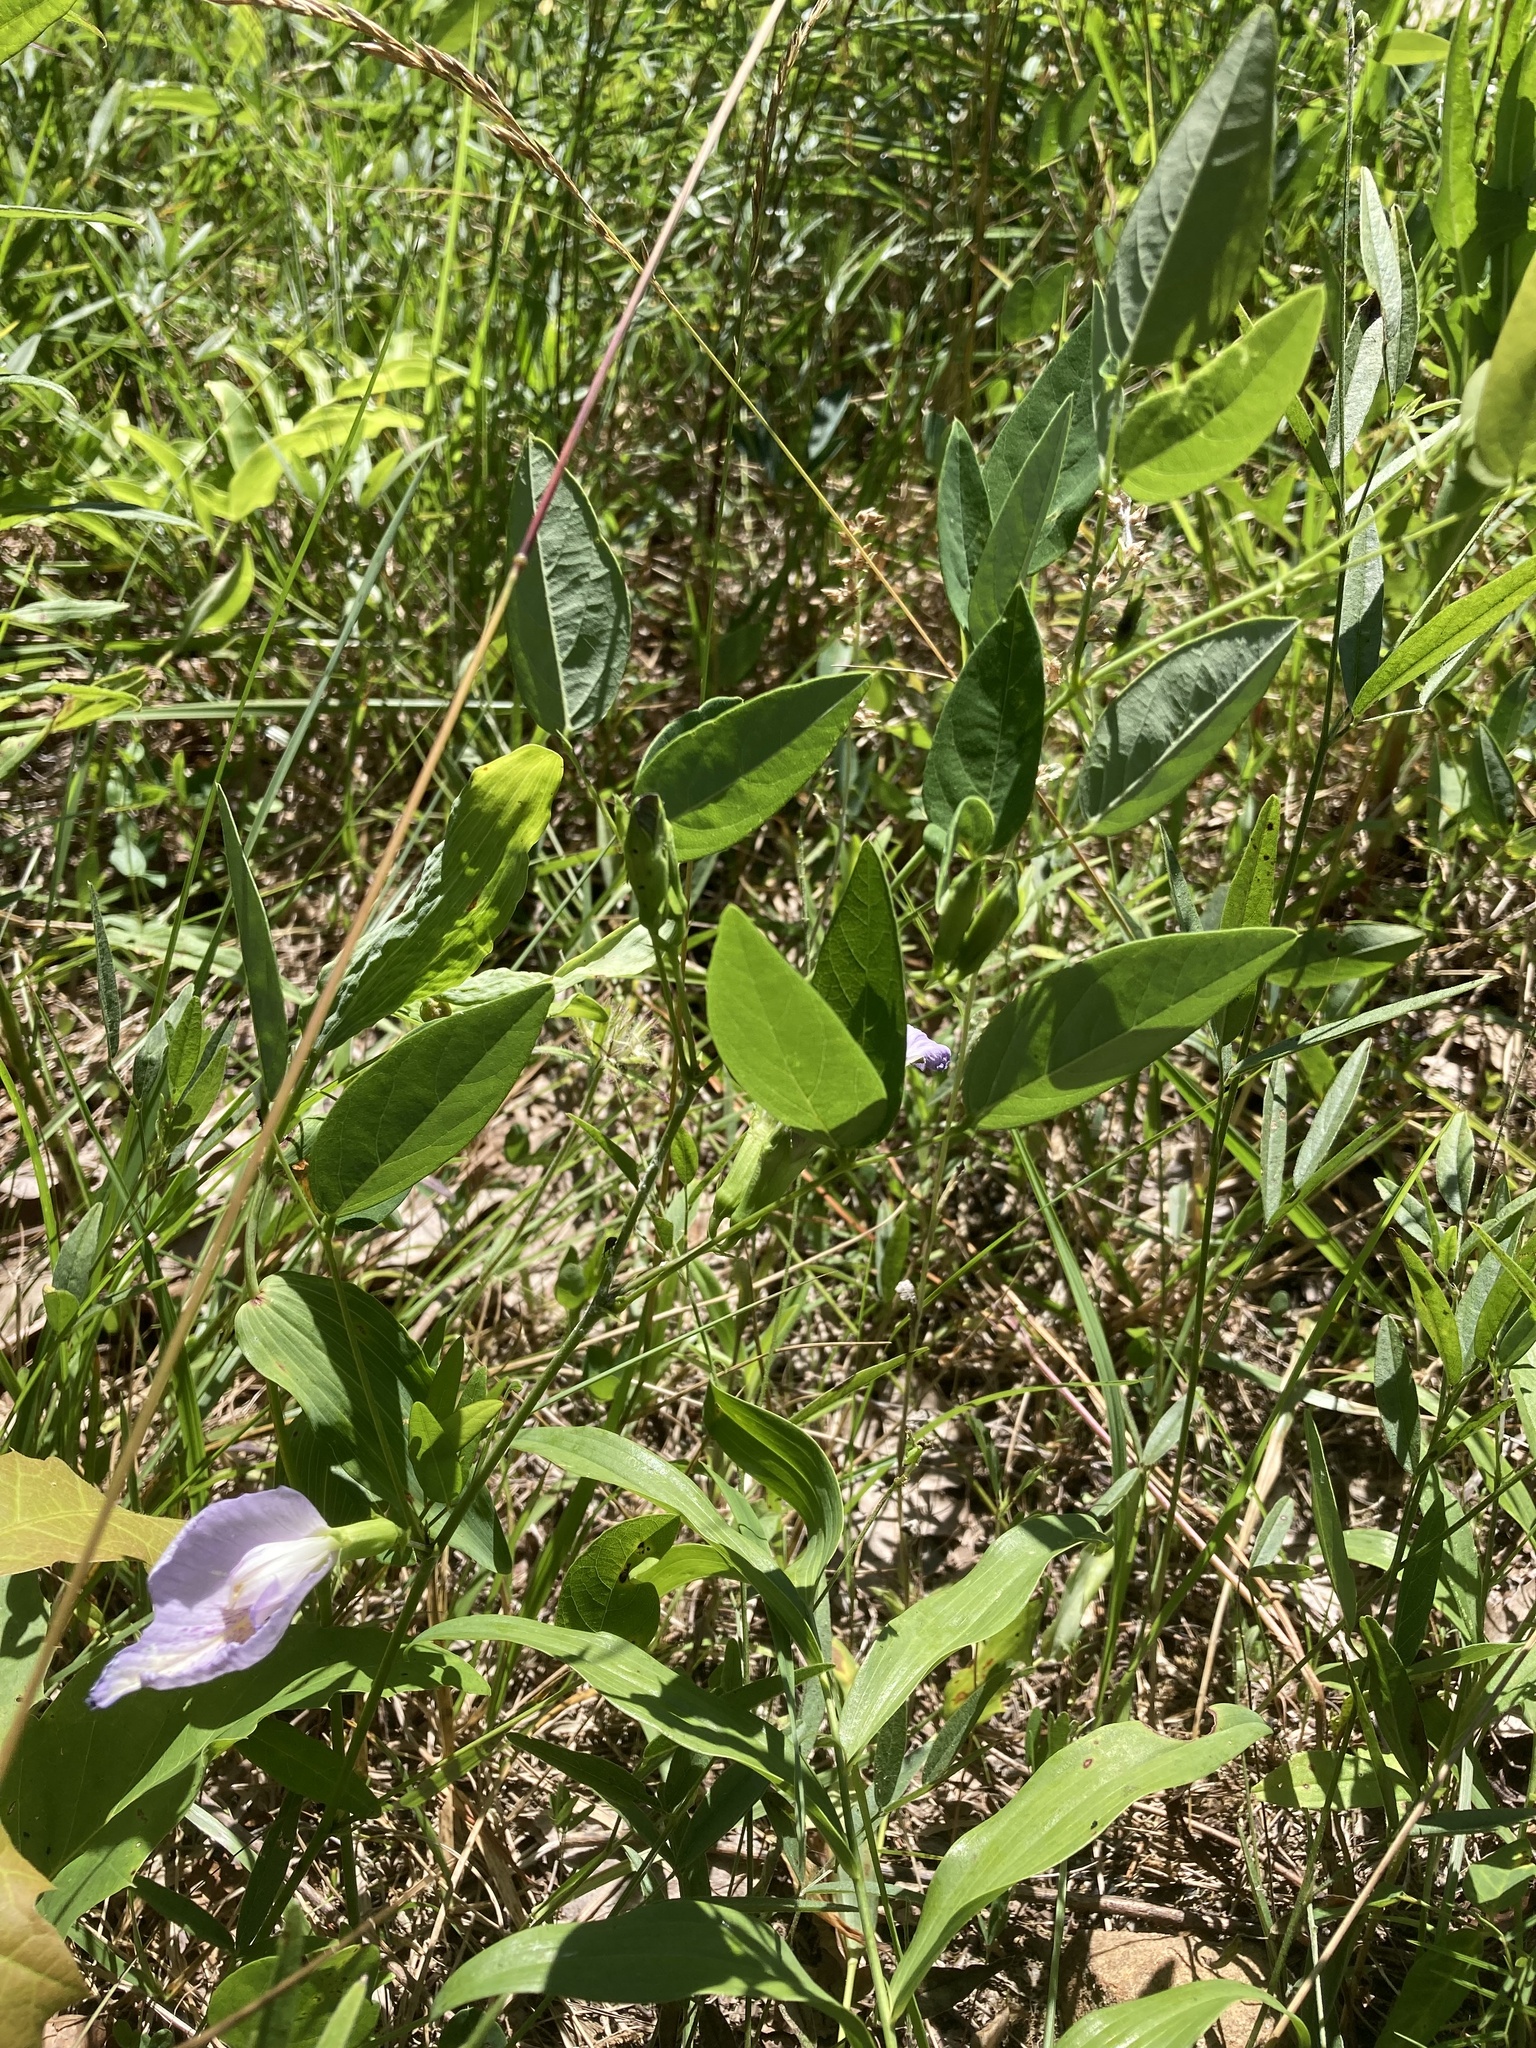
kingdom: Plantae
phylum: Tracheophyta
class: Magnoliopsida
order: Fabales
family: Fabaceae
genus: Clitoria
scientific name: Clitoria mariana
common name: Butterfly-pea
